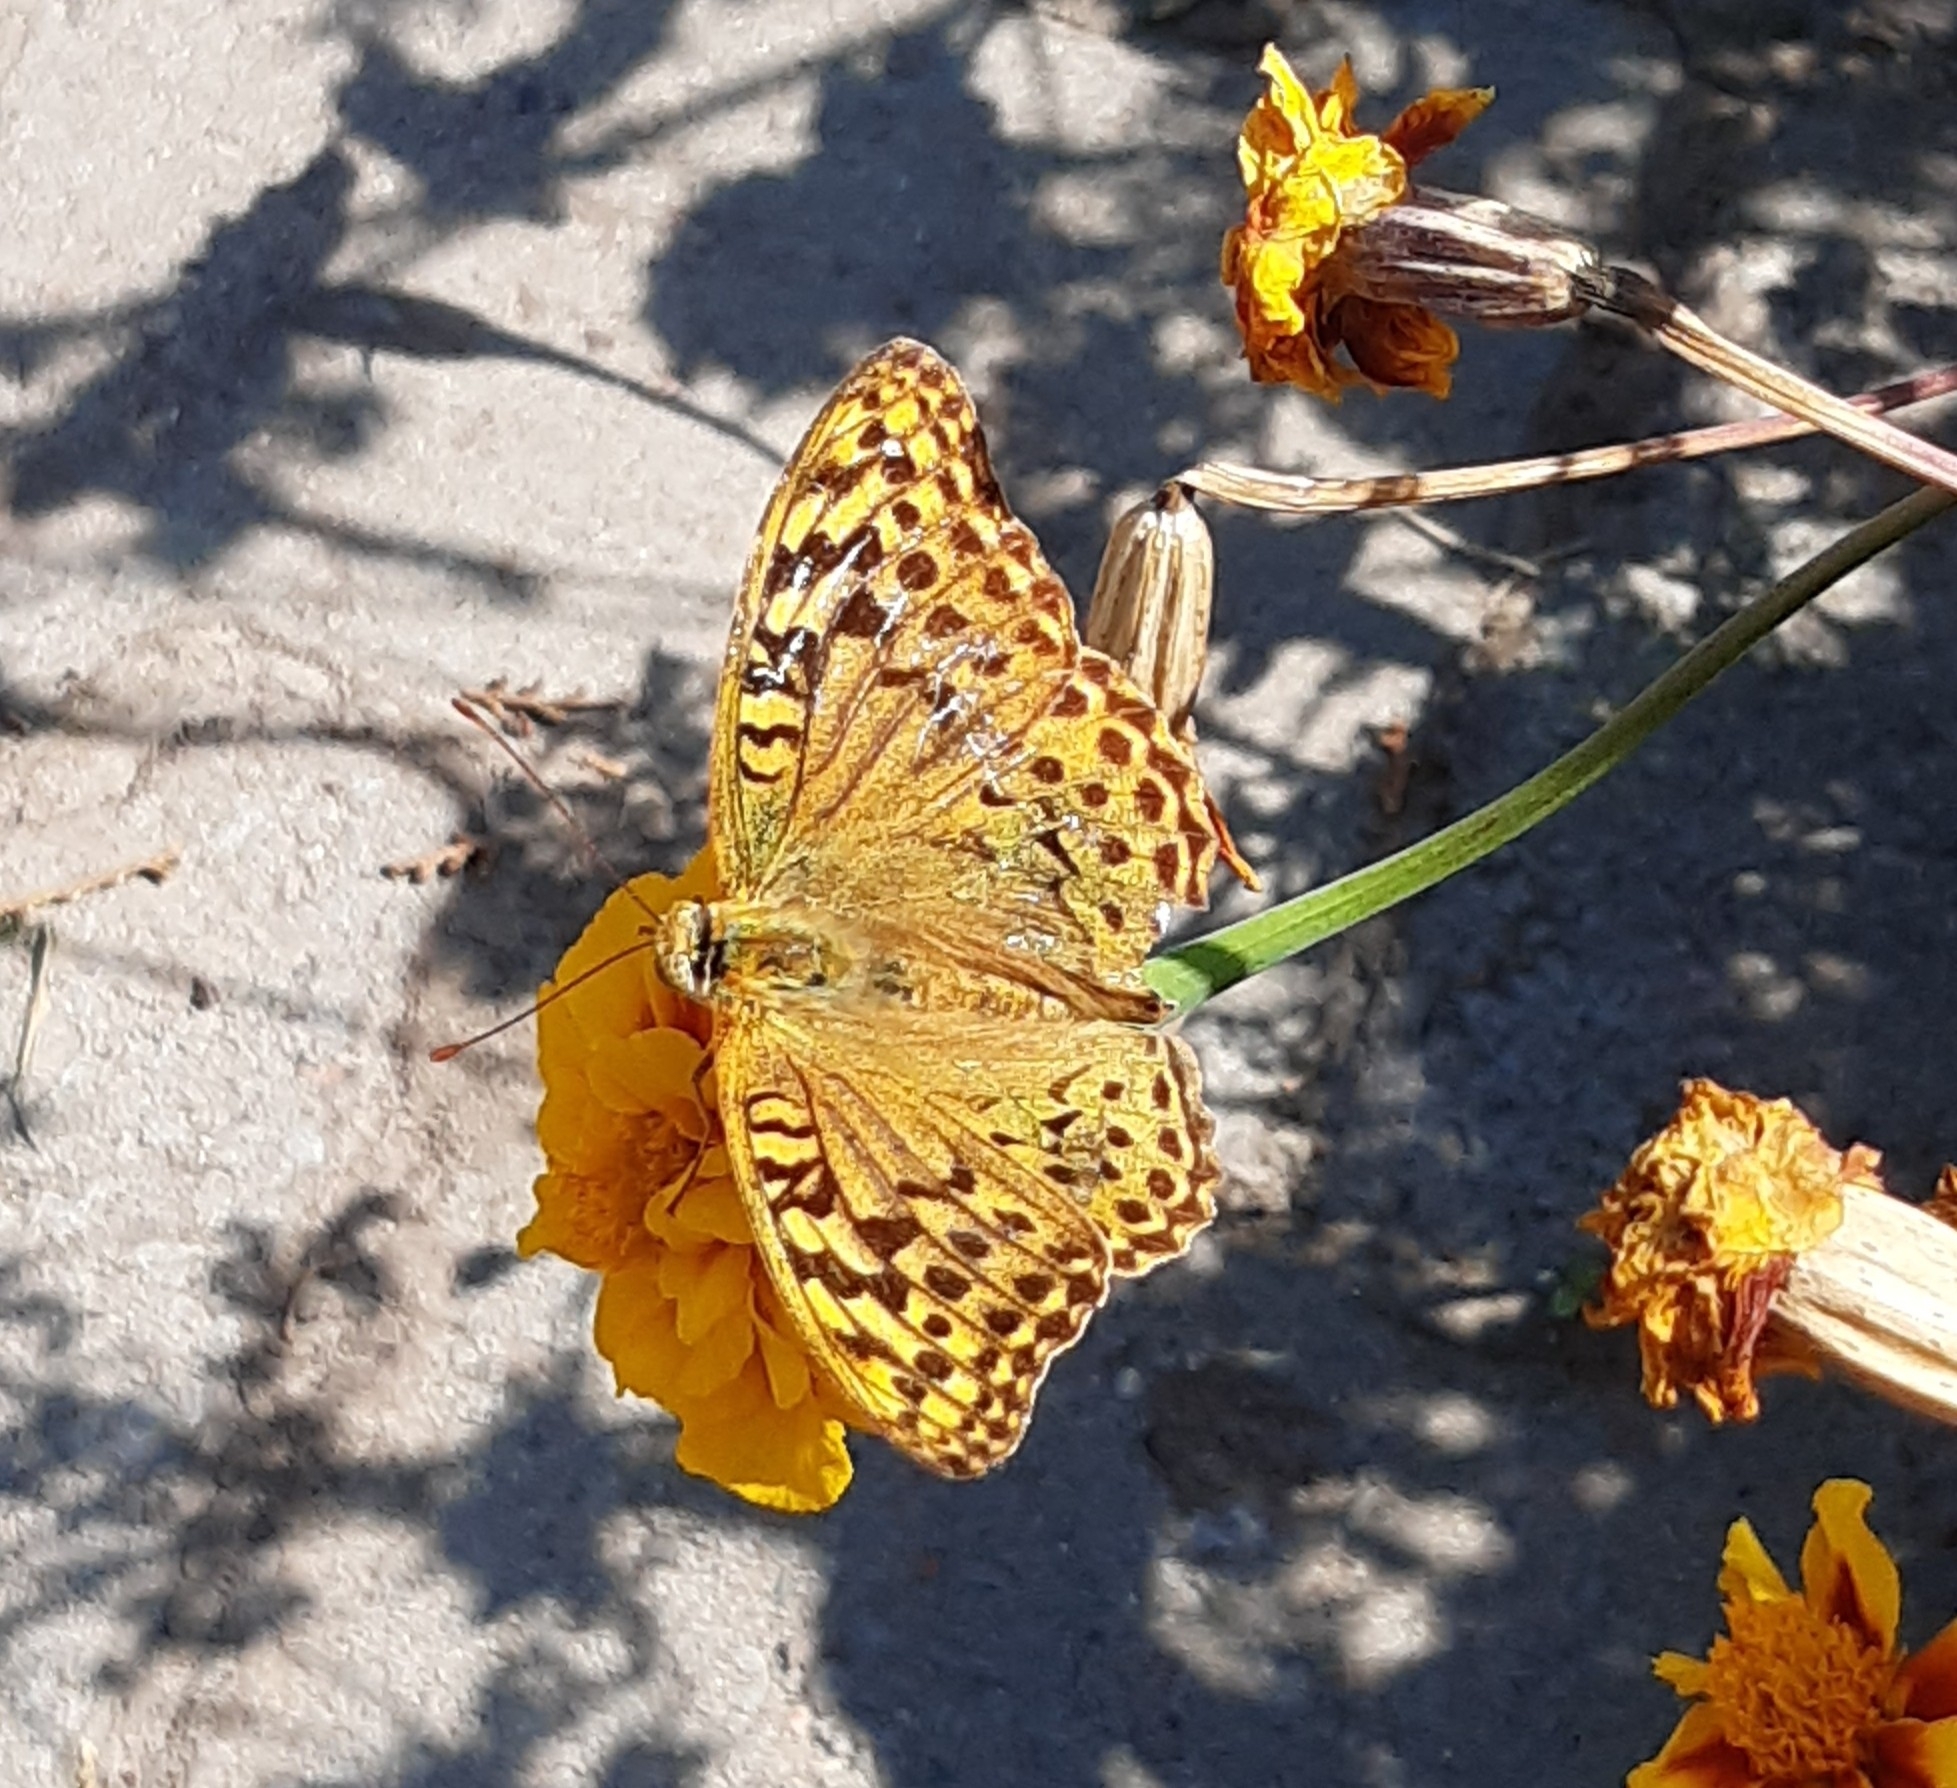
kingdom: Animalia
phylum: Arthropoda
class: Insecta
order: Lepidoptera
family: Nymphalidae
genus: Damora
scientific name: Damora pandora
